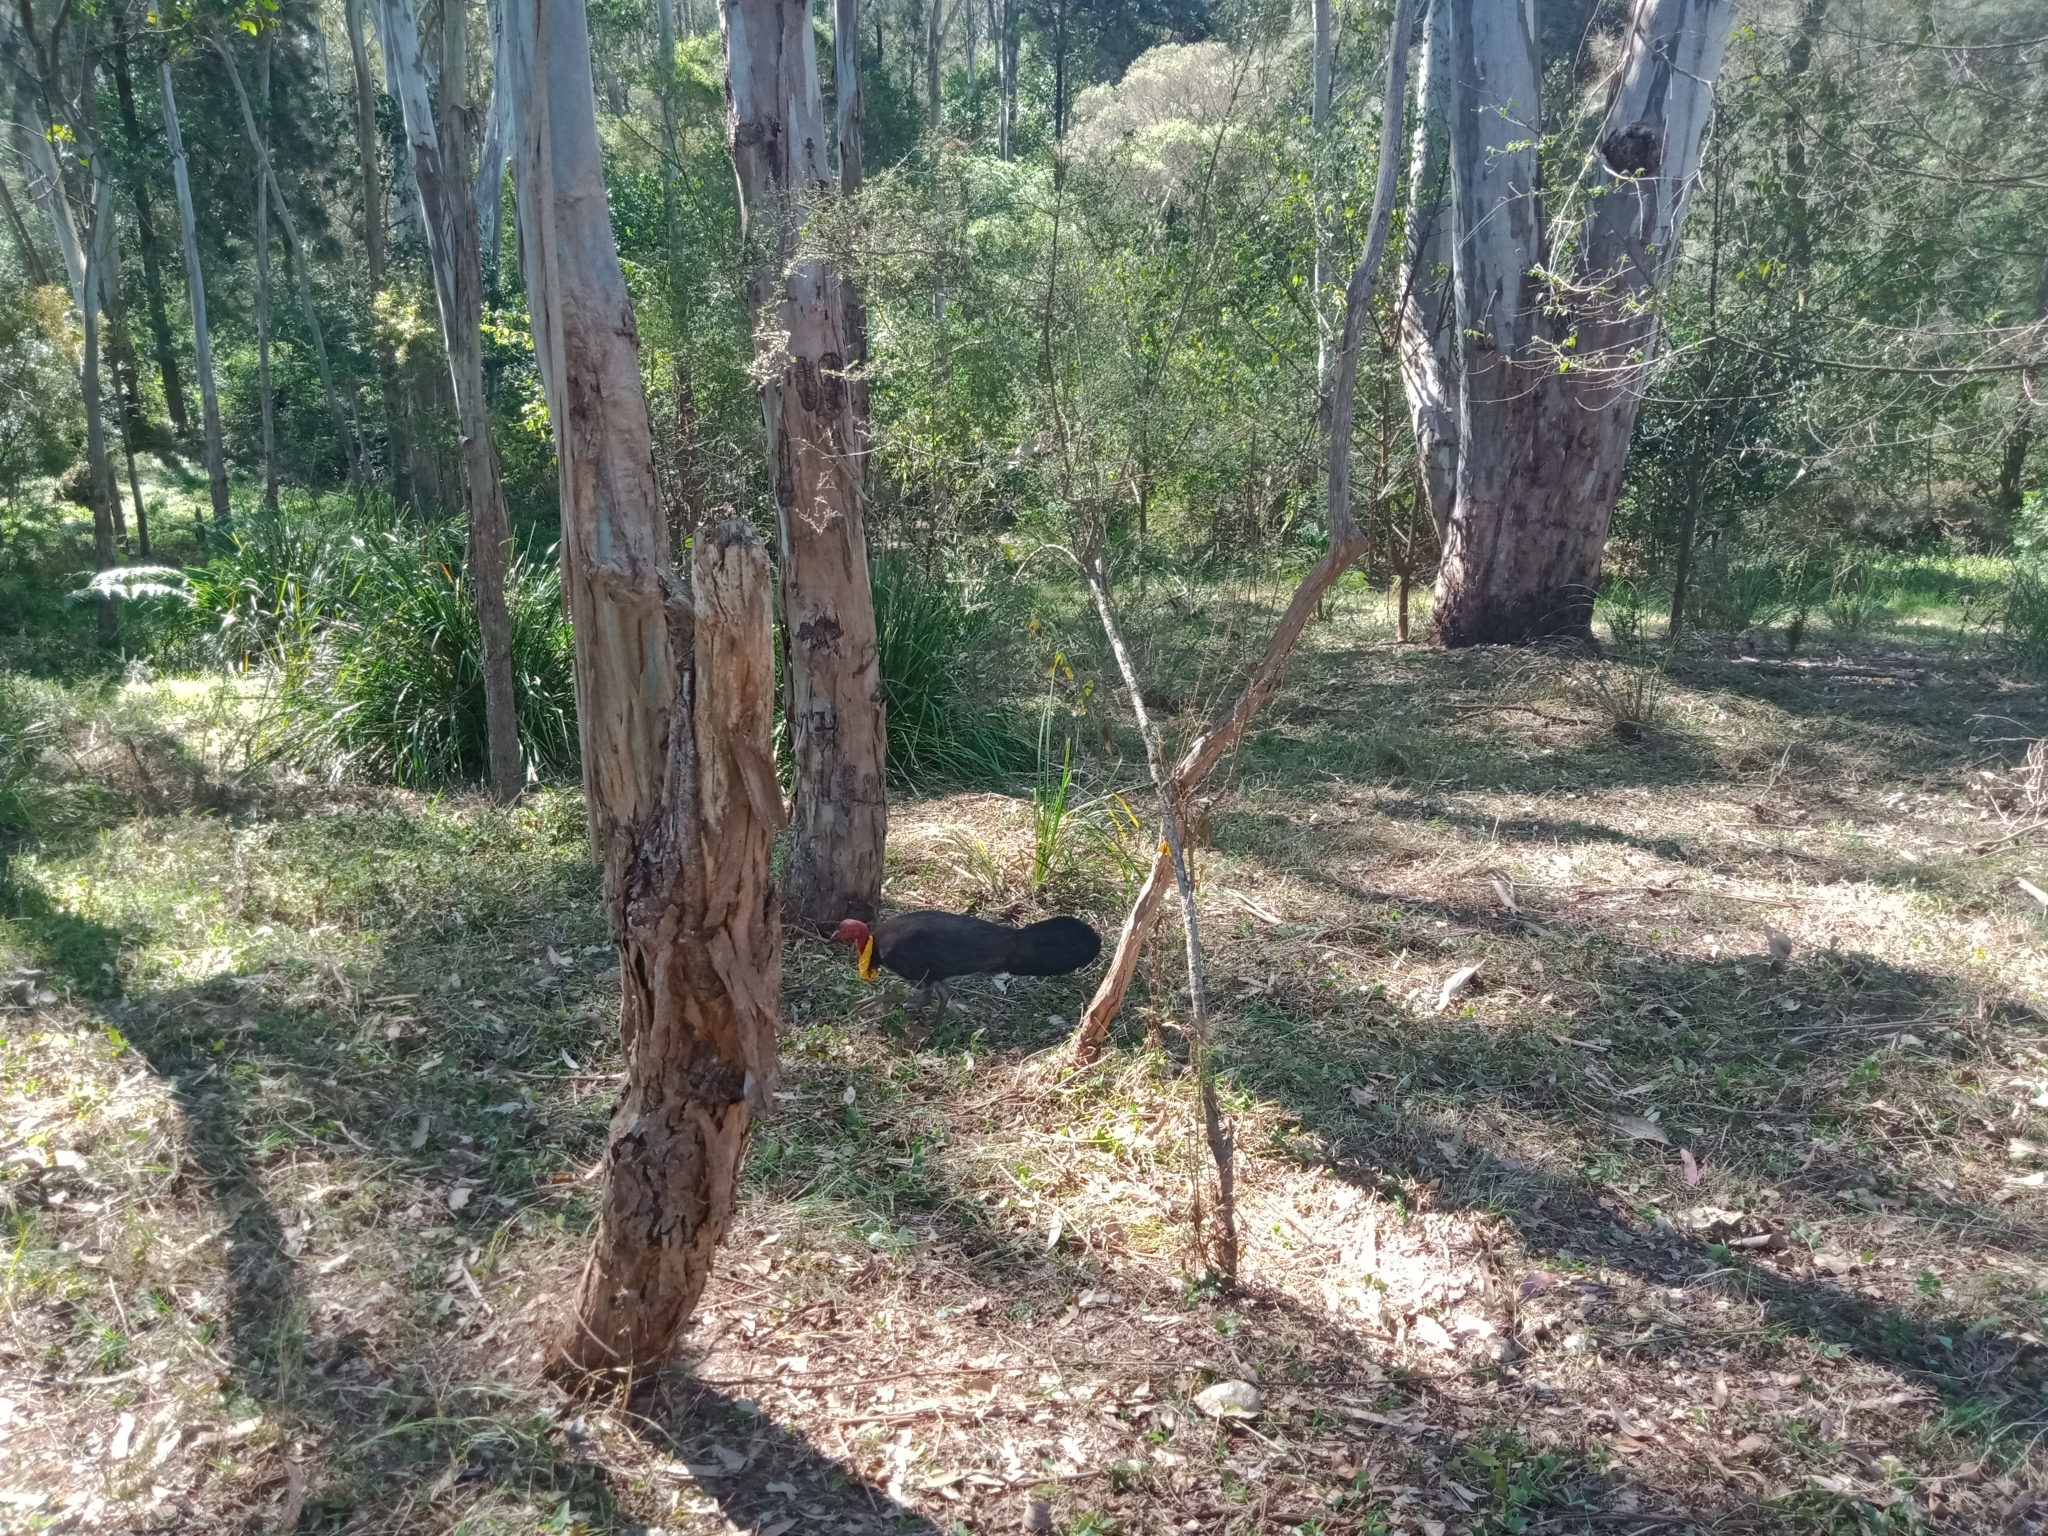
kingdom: Animalia
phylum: Chordata
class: Aves
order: Galliformes
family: Megapodiidae
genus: Alectura
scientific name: Alectura lathami
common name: Australian brushturkey
